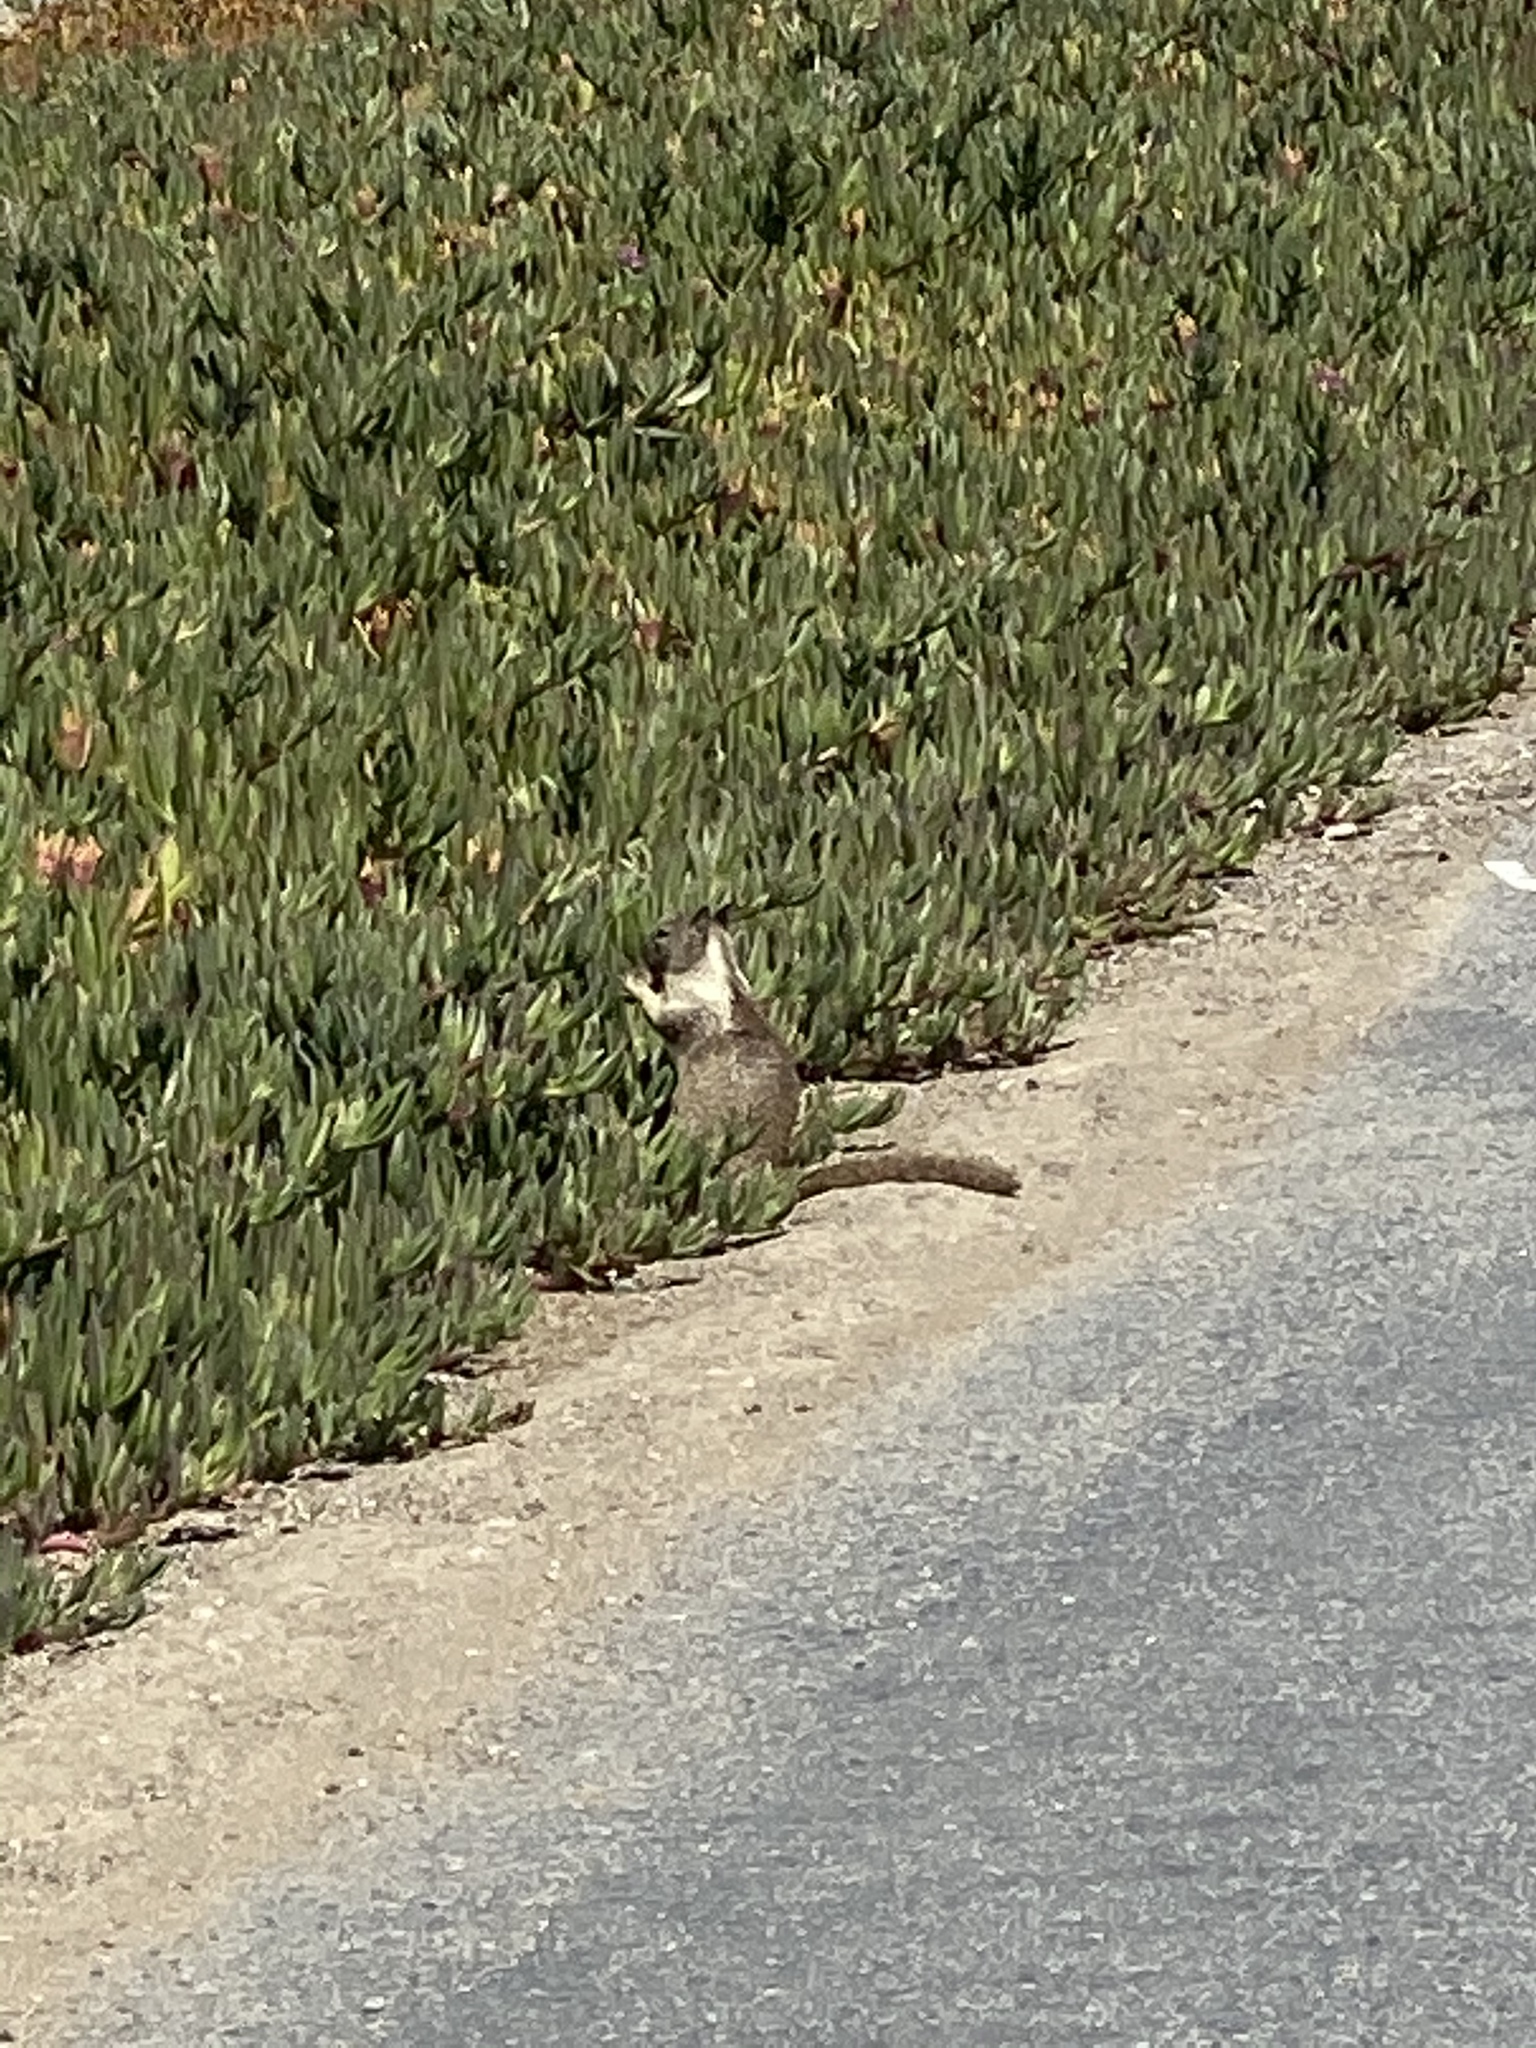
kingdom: Animalia
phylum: Chordata
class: Mammalia
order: Rodentia
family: Sciuridae
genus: Otospermophilus
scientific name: Otospermophilus beecheyi
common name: California ground squirrel
